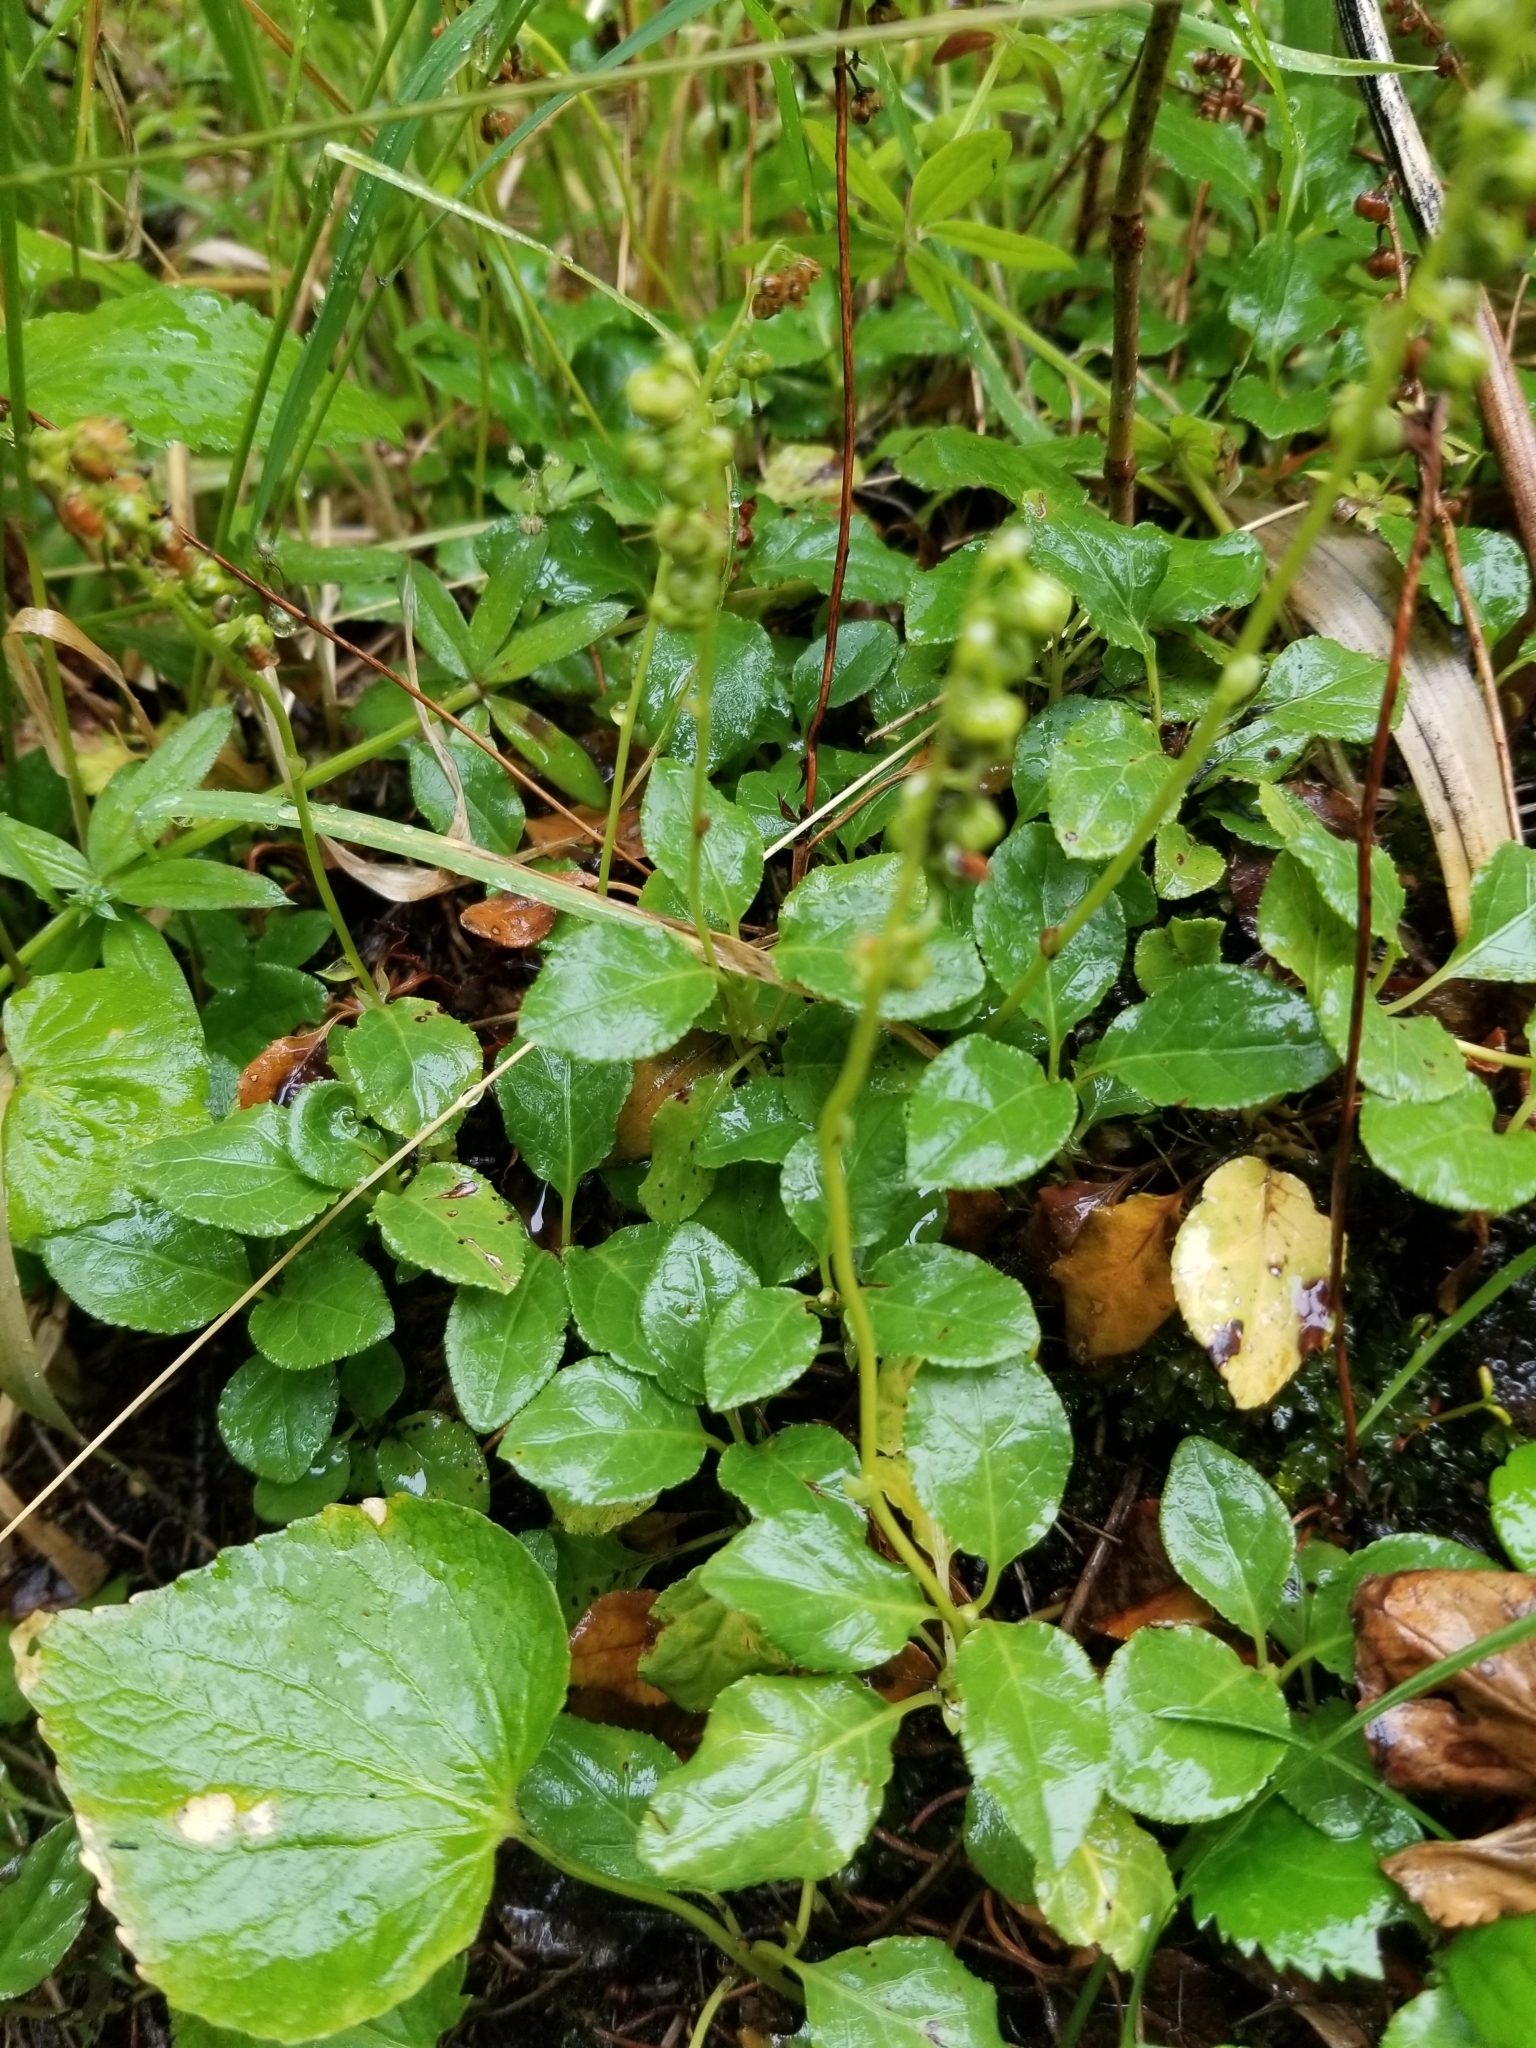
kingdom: Plantae
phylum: Tracheophyta
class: Magnoliopsida
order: Ericales
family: Ericaceae
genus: Orthilia
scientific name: Orthilia secunda
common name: One-sided orthilia
